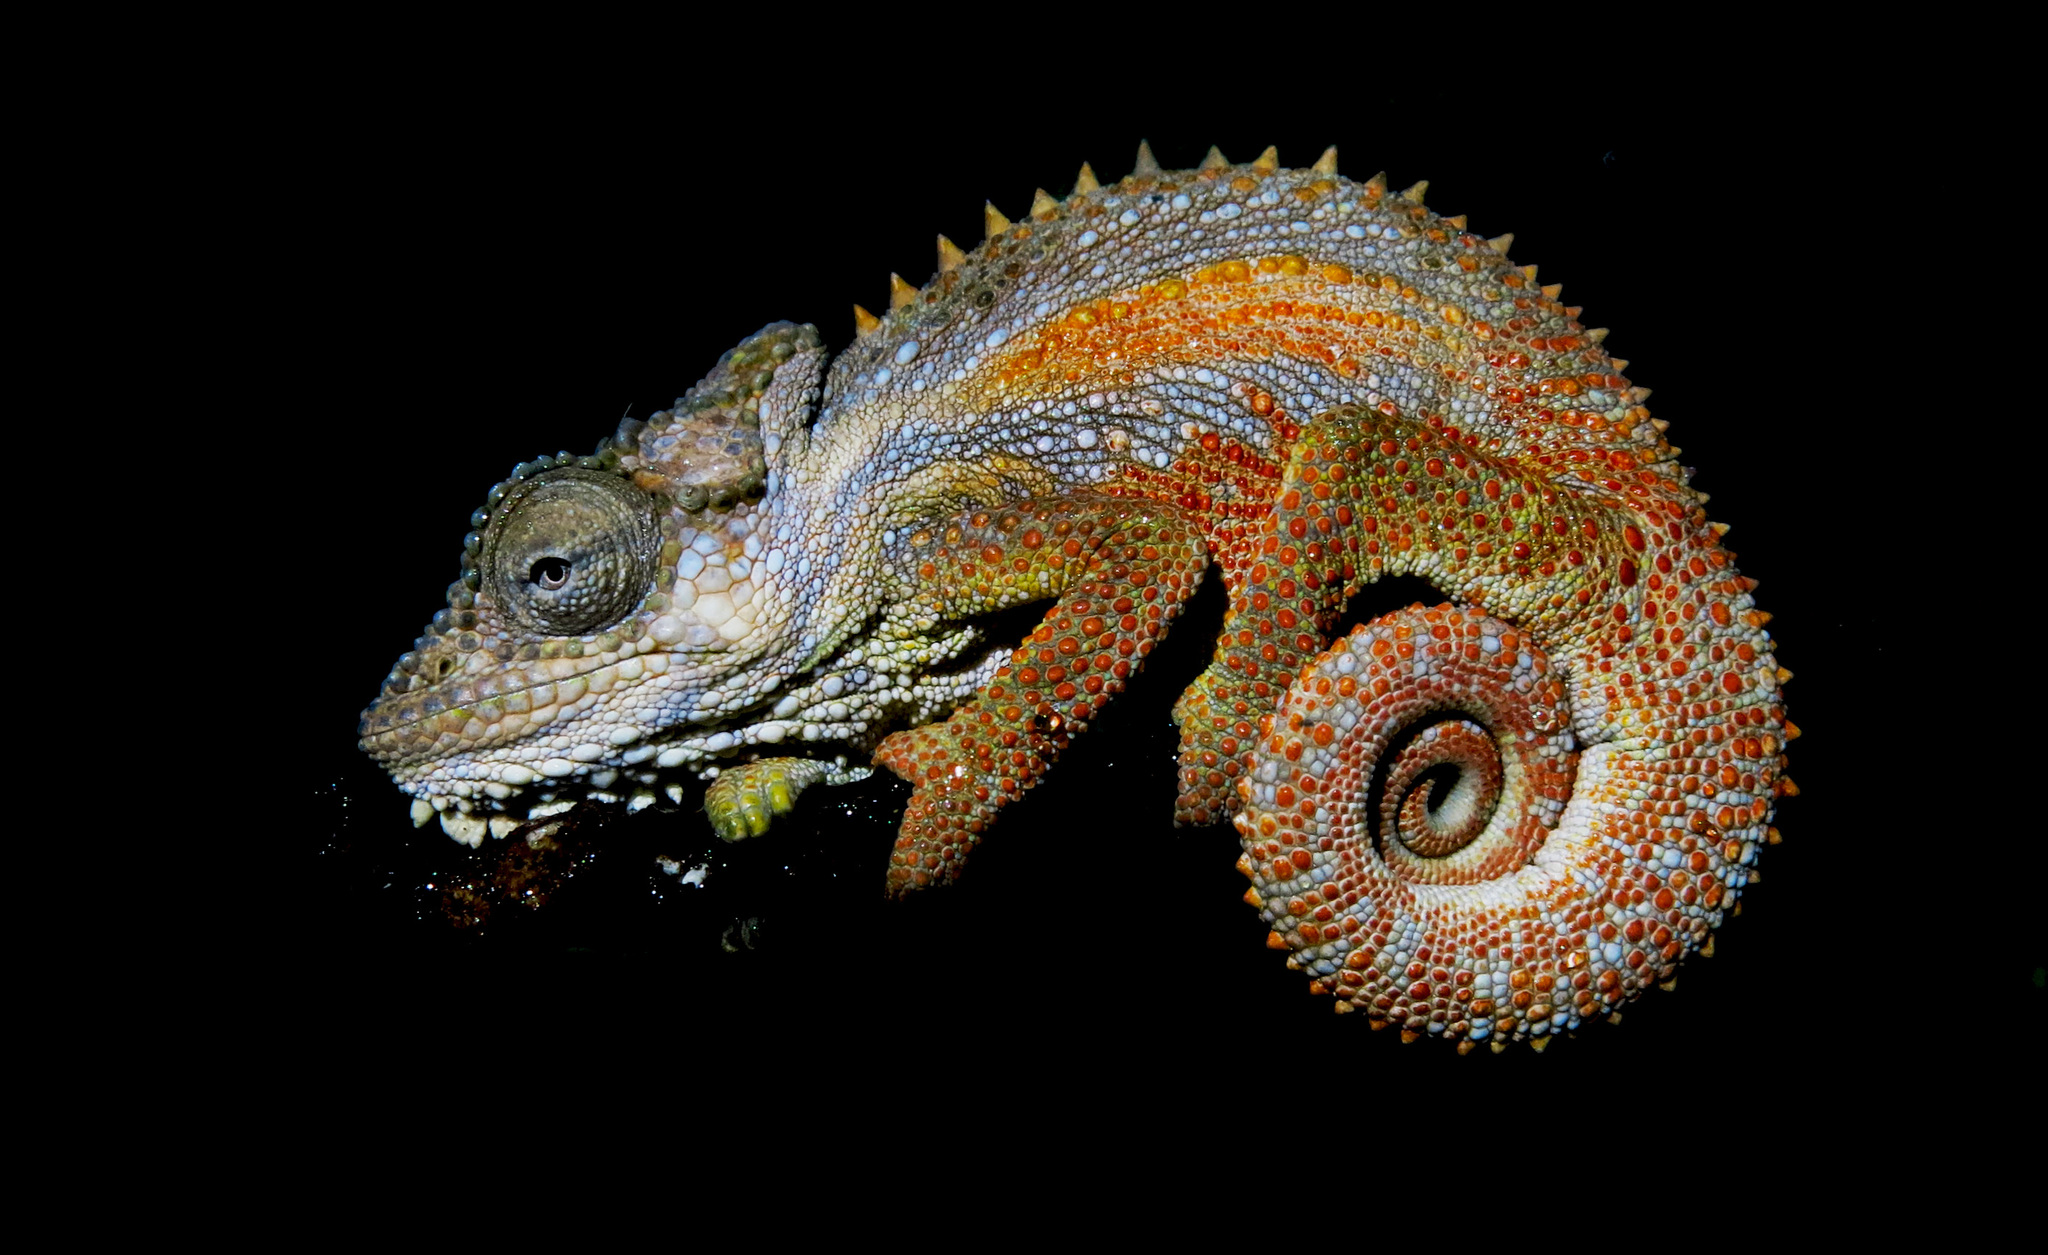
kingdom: Animalia
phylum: Chordata
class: Squamata
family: Chamaeleonidae
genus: Bradypodion
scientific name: Bradypodion transvaalense
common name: Transvaal dwarf chameleon
